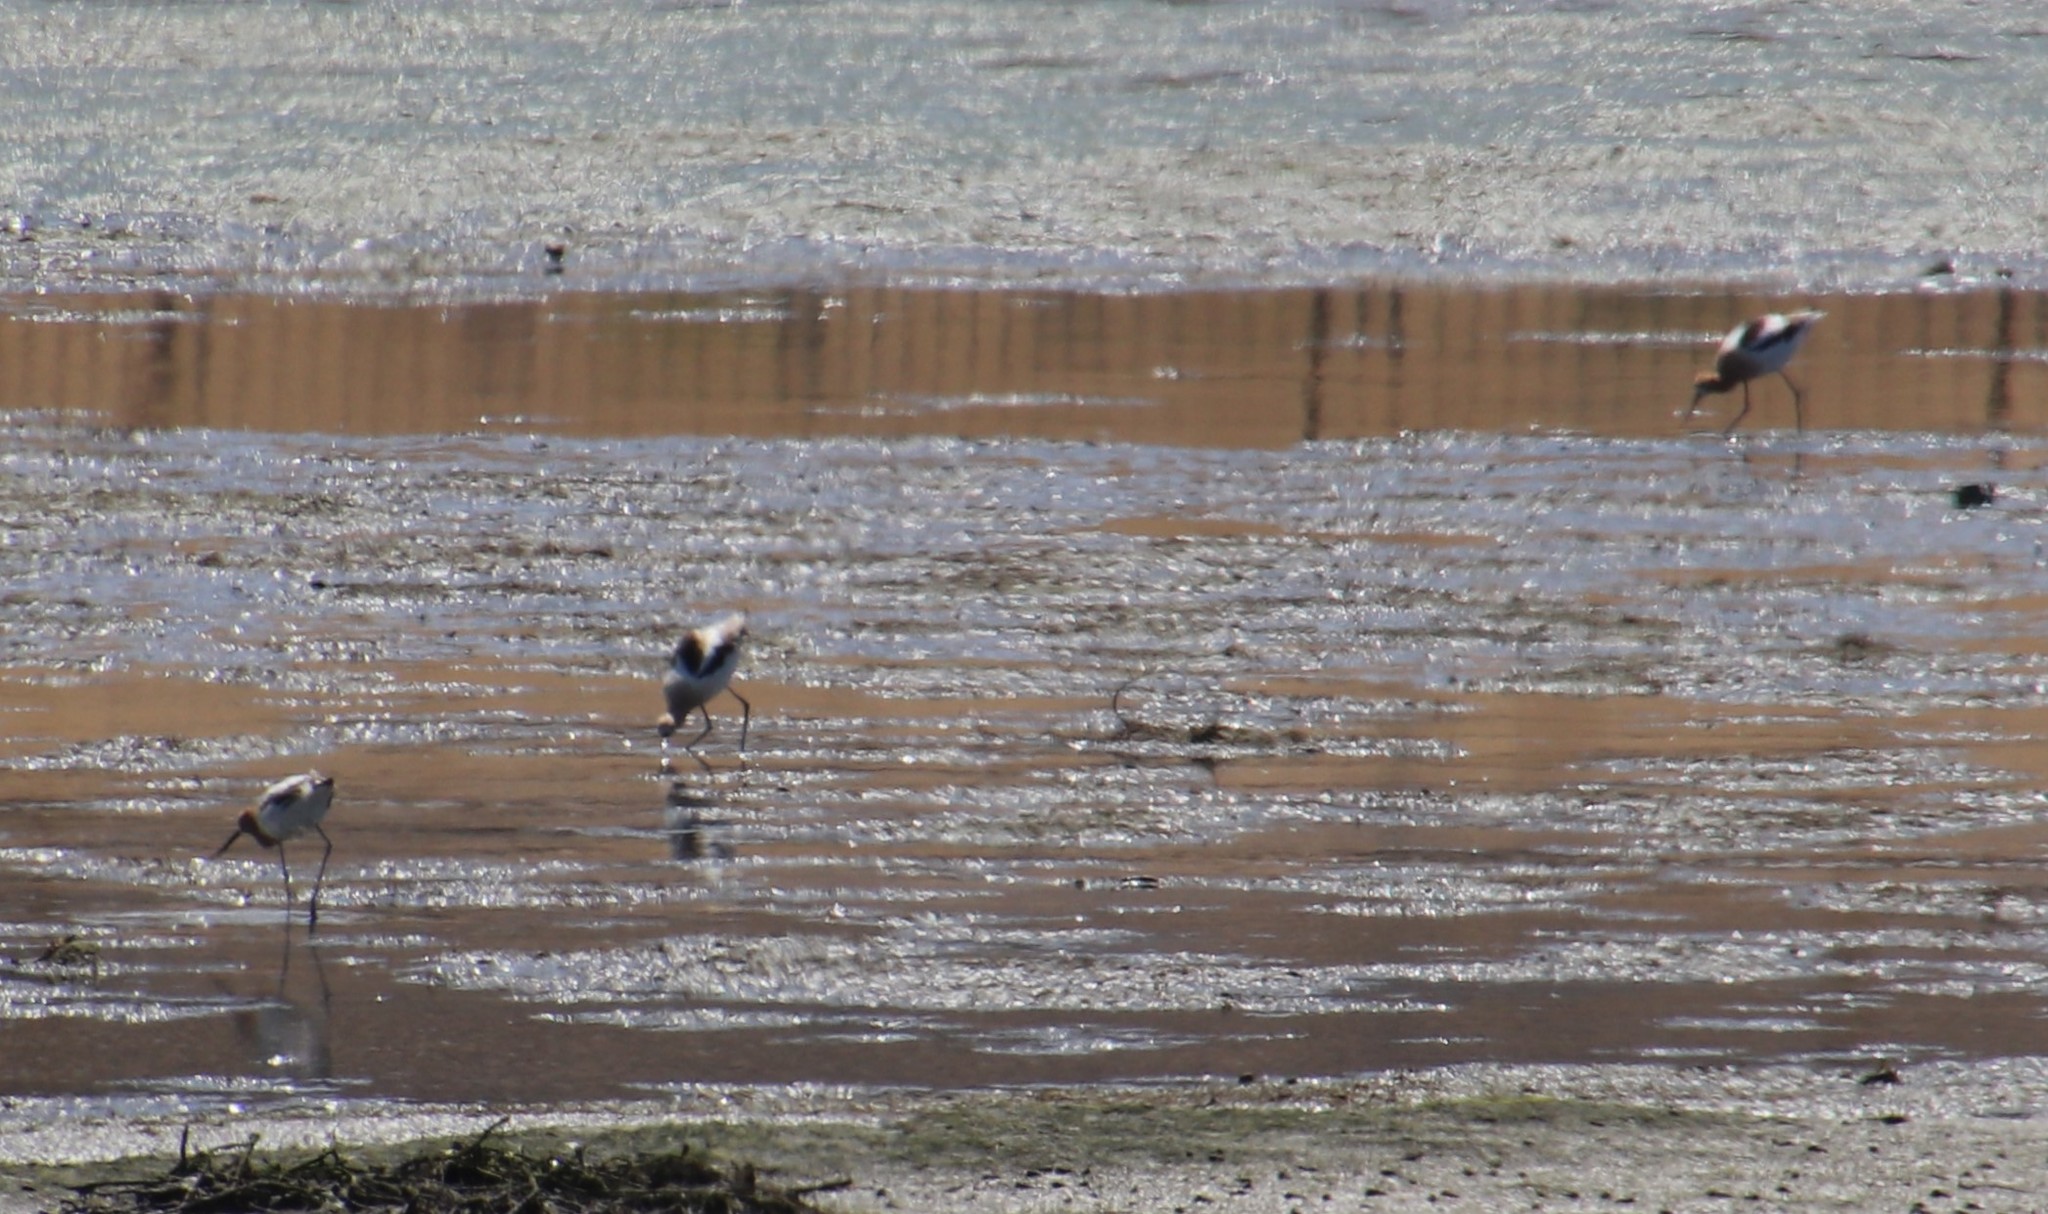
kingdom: Animalia
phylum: Chordata
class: Aves
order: Charadriiformes
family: Recurvirostridae
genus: Recurvirostra
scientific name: Recurvirostra americana
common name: American avocet
